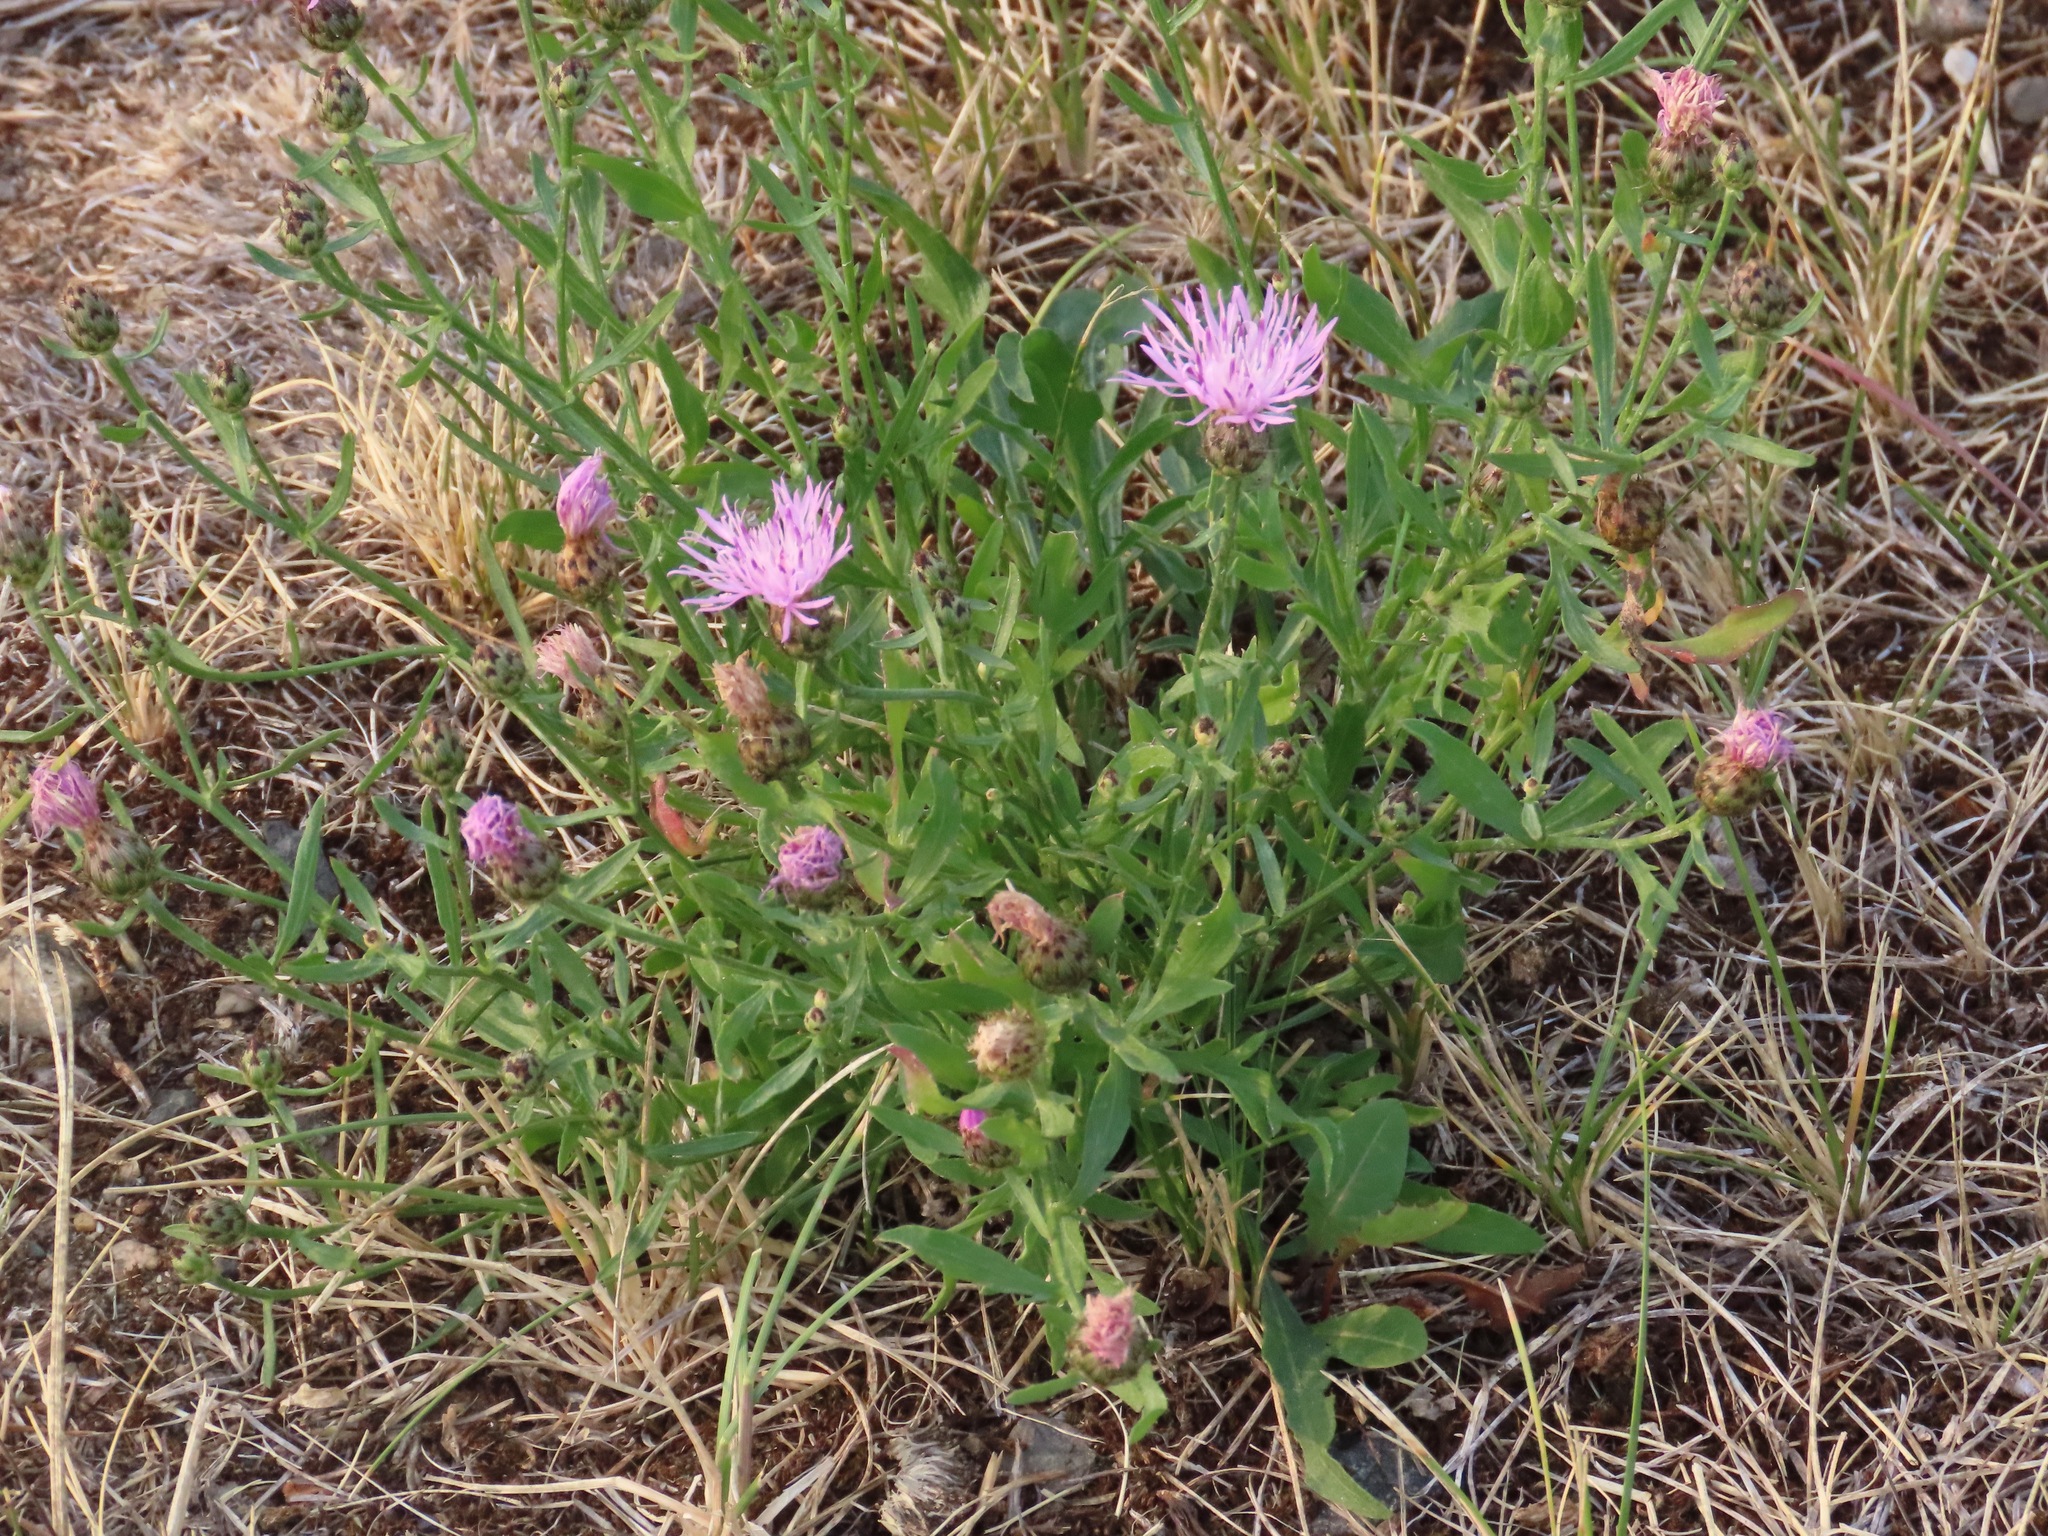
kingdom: Plantae
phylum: Tracheophyta
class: Magnoliopsida
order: Asterales
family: Asteraceae
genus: Centaurea
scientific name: Centaurea stoebe
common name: Spotted knapweed
